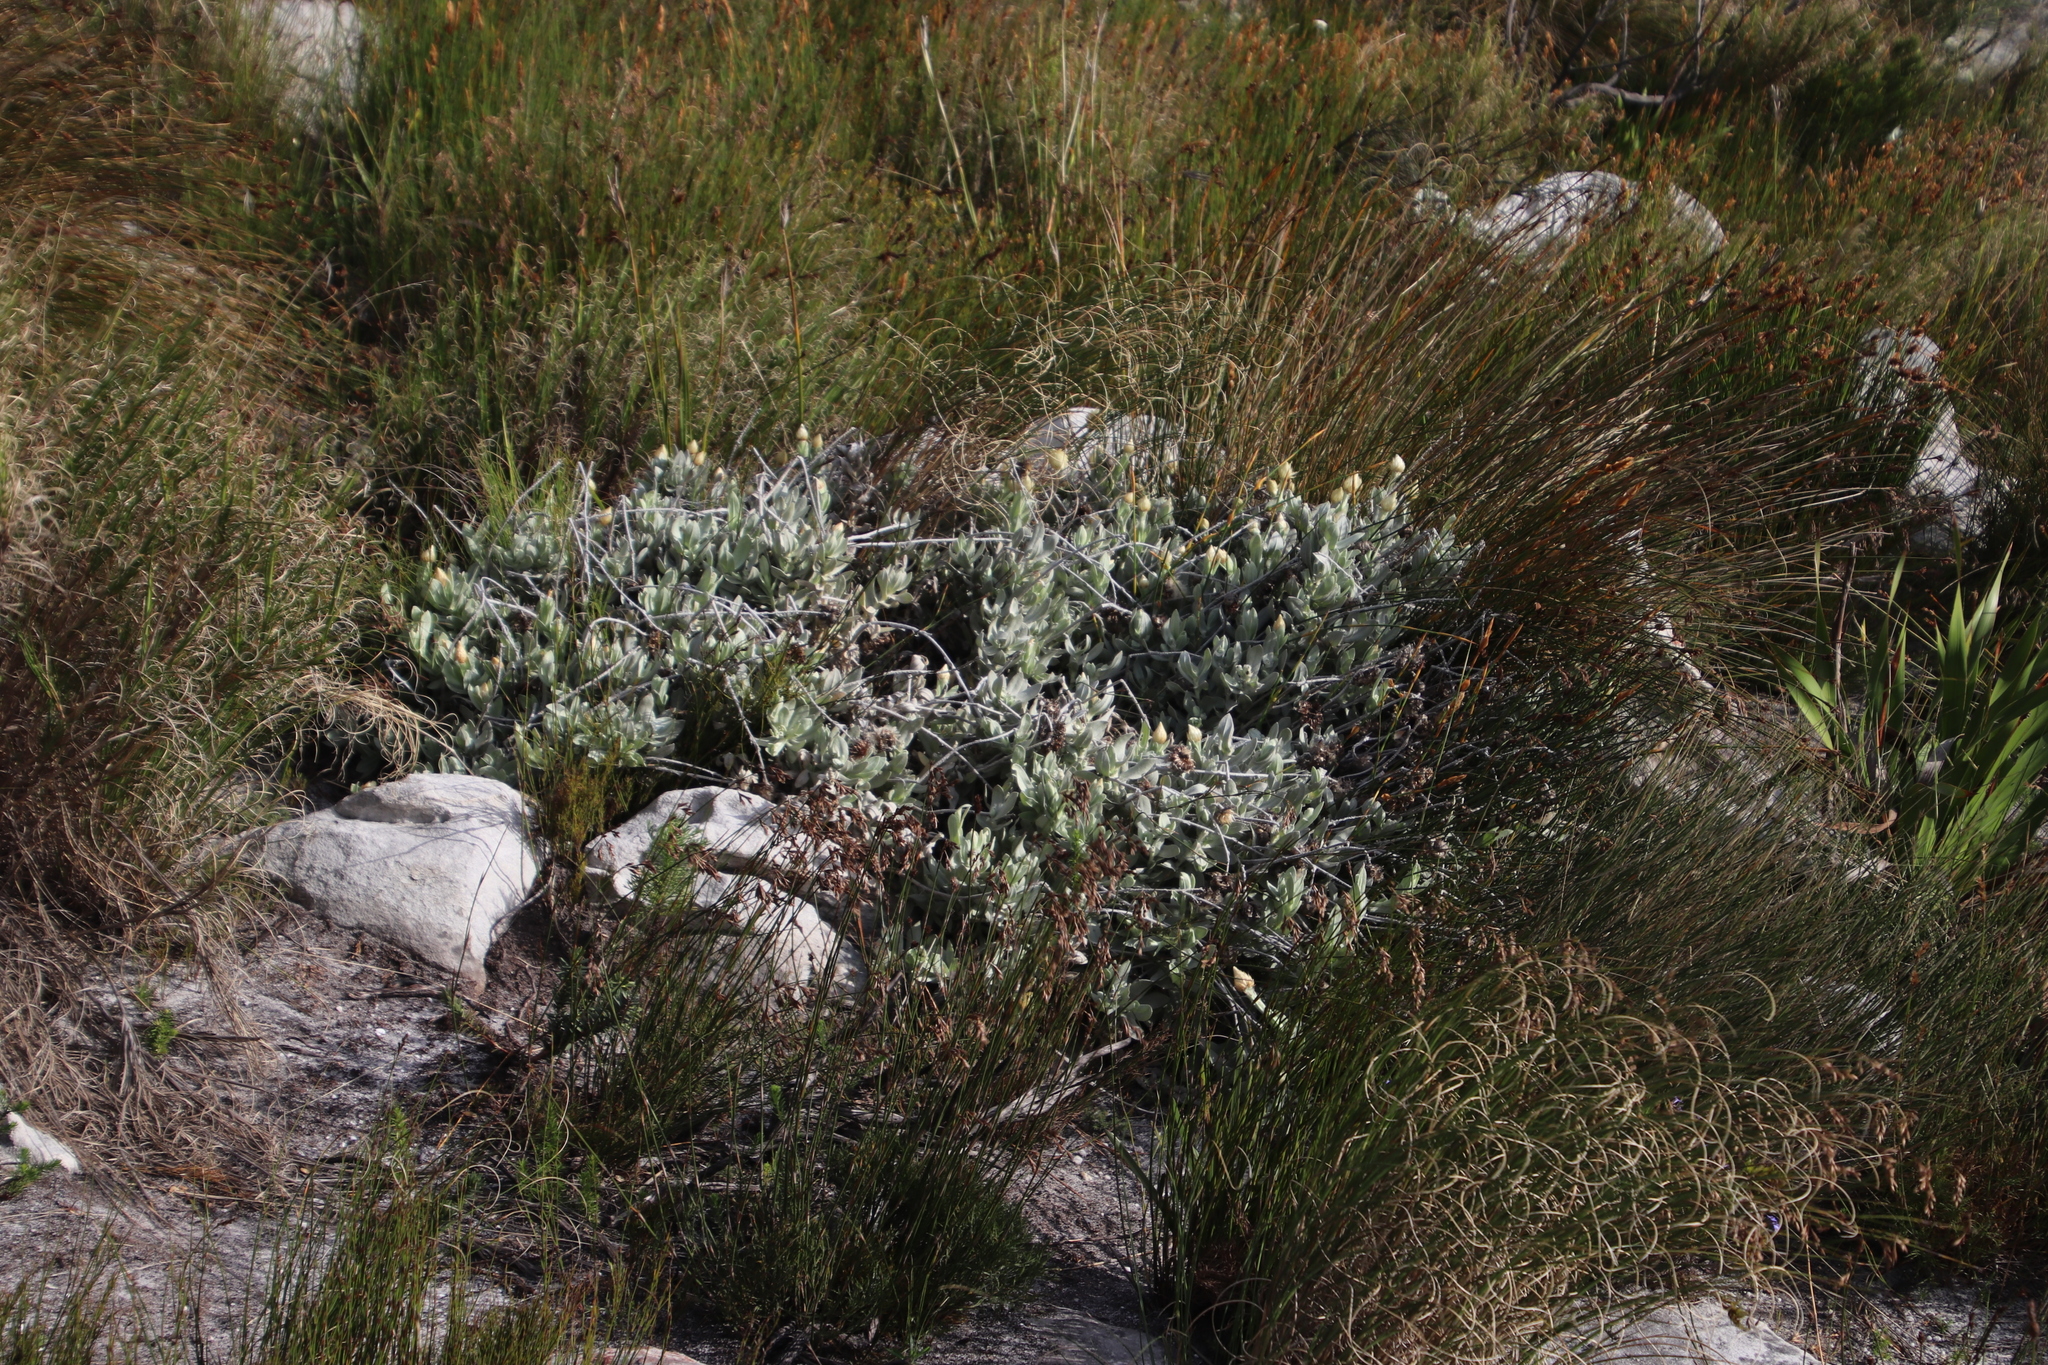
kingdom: Plantae
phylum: Tracheophyta
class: Magnoliopsida
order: Asterales
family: Asteraceae
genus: Syncarpha
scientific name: Syncarpha speciosissima
